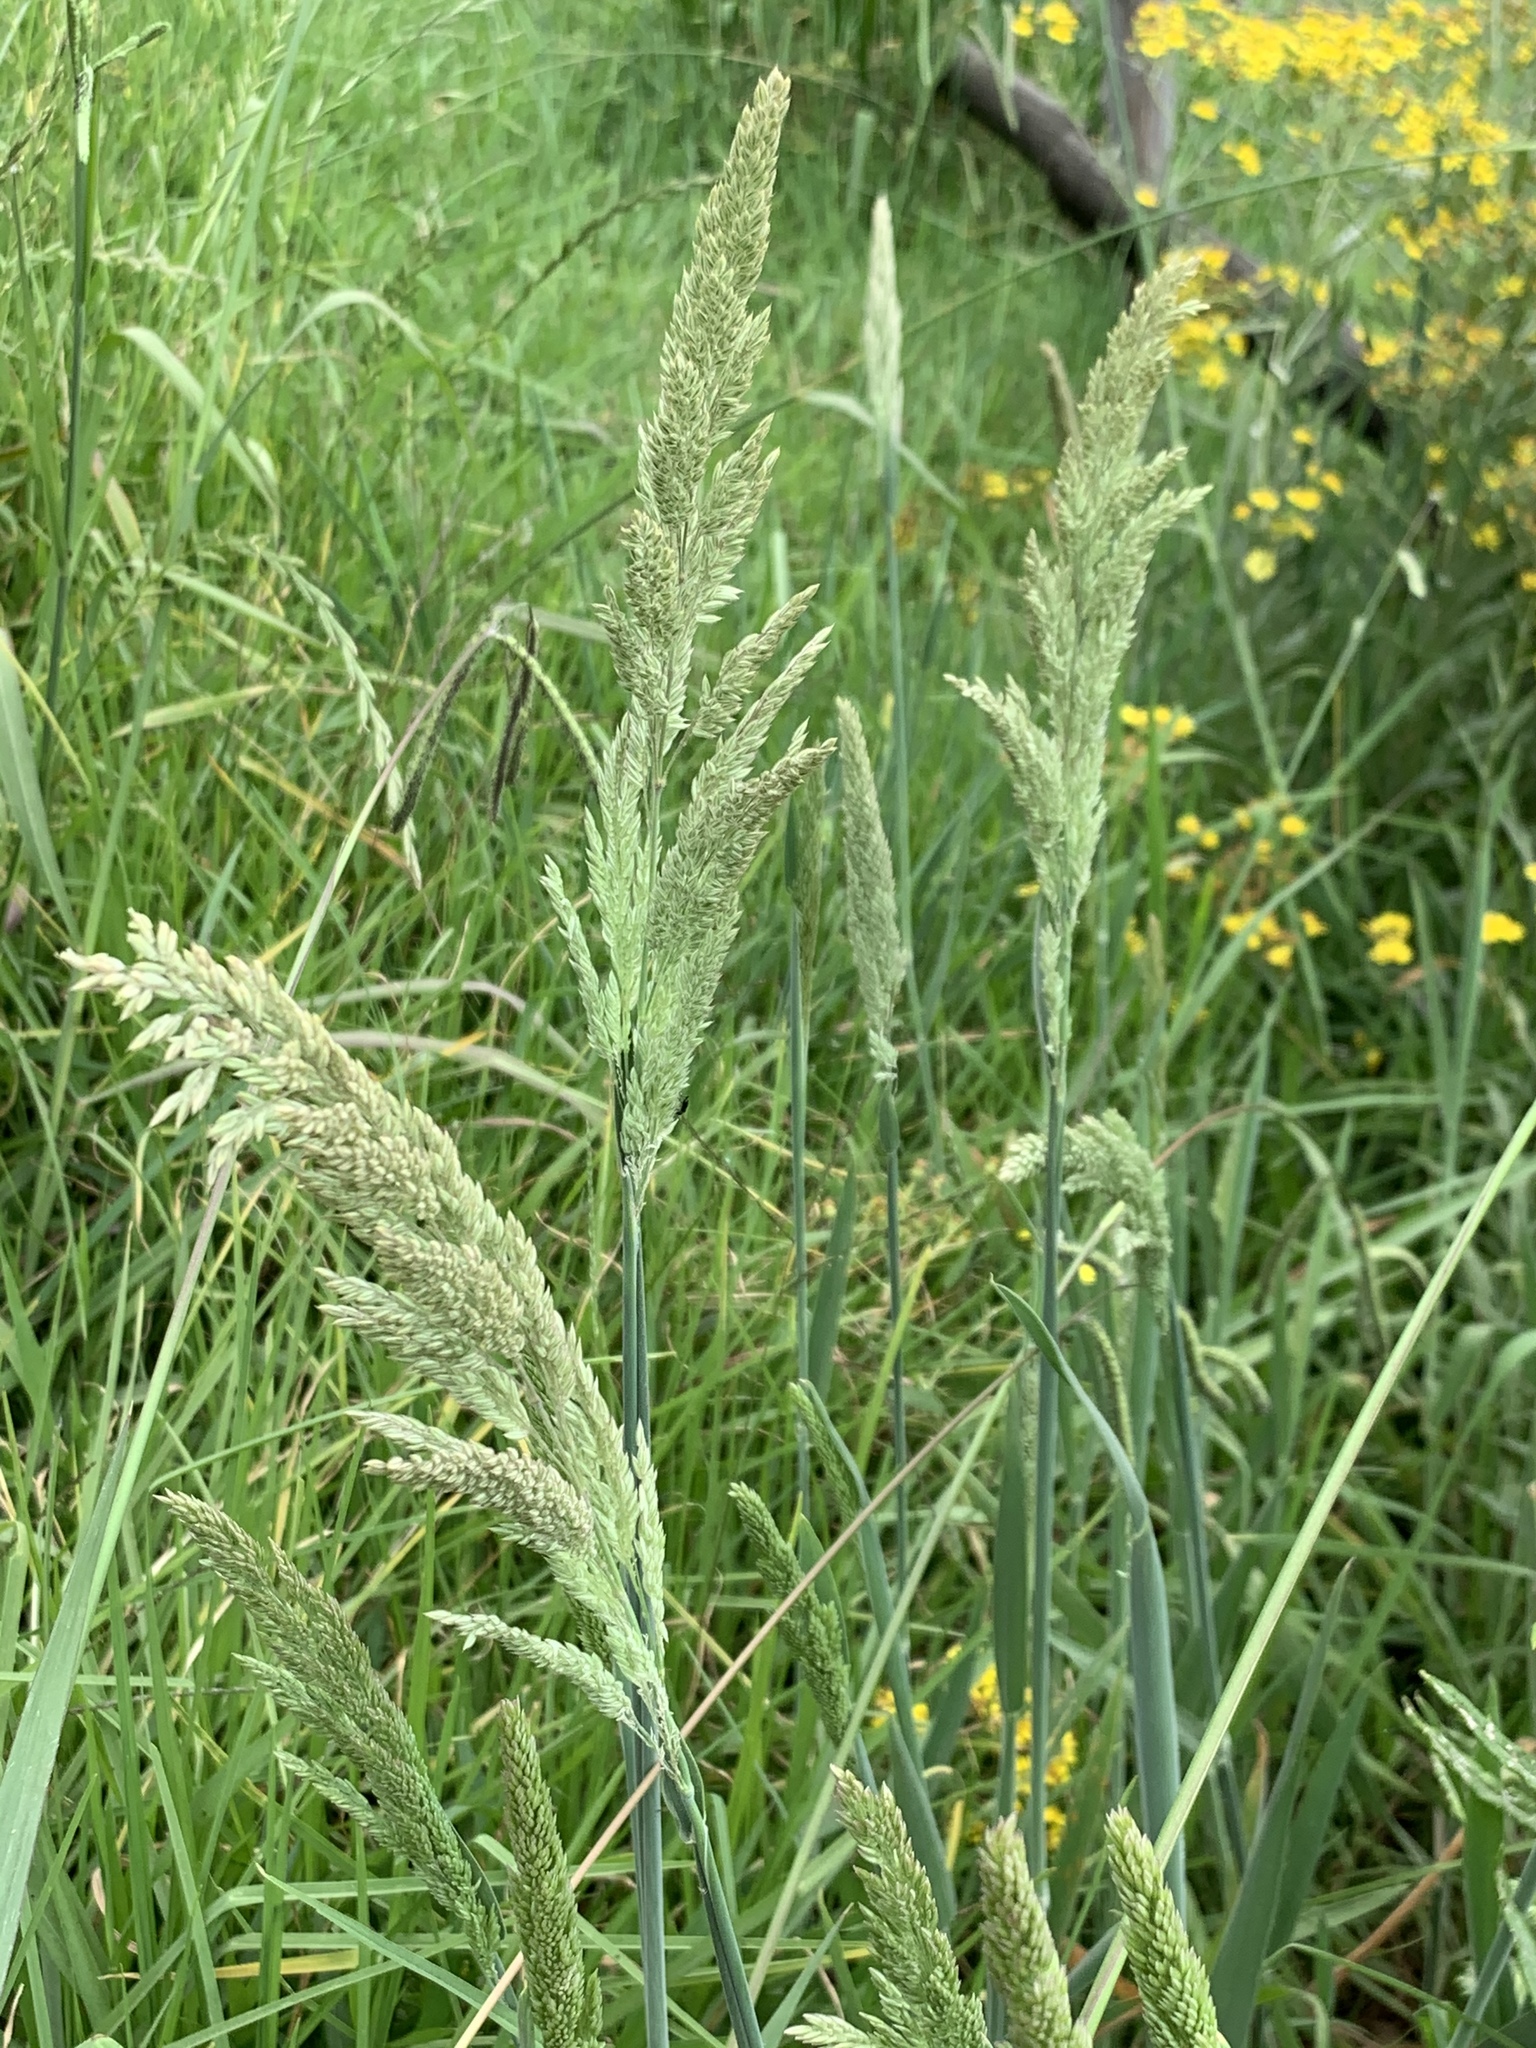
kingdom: Plantae
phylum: Tracheophyta
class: Liliopsida
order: Poales
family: Poaceae
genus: Holcus
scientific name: Holcus lanatus
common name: Yorkshire-fog
